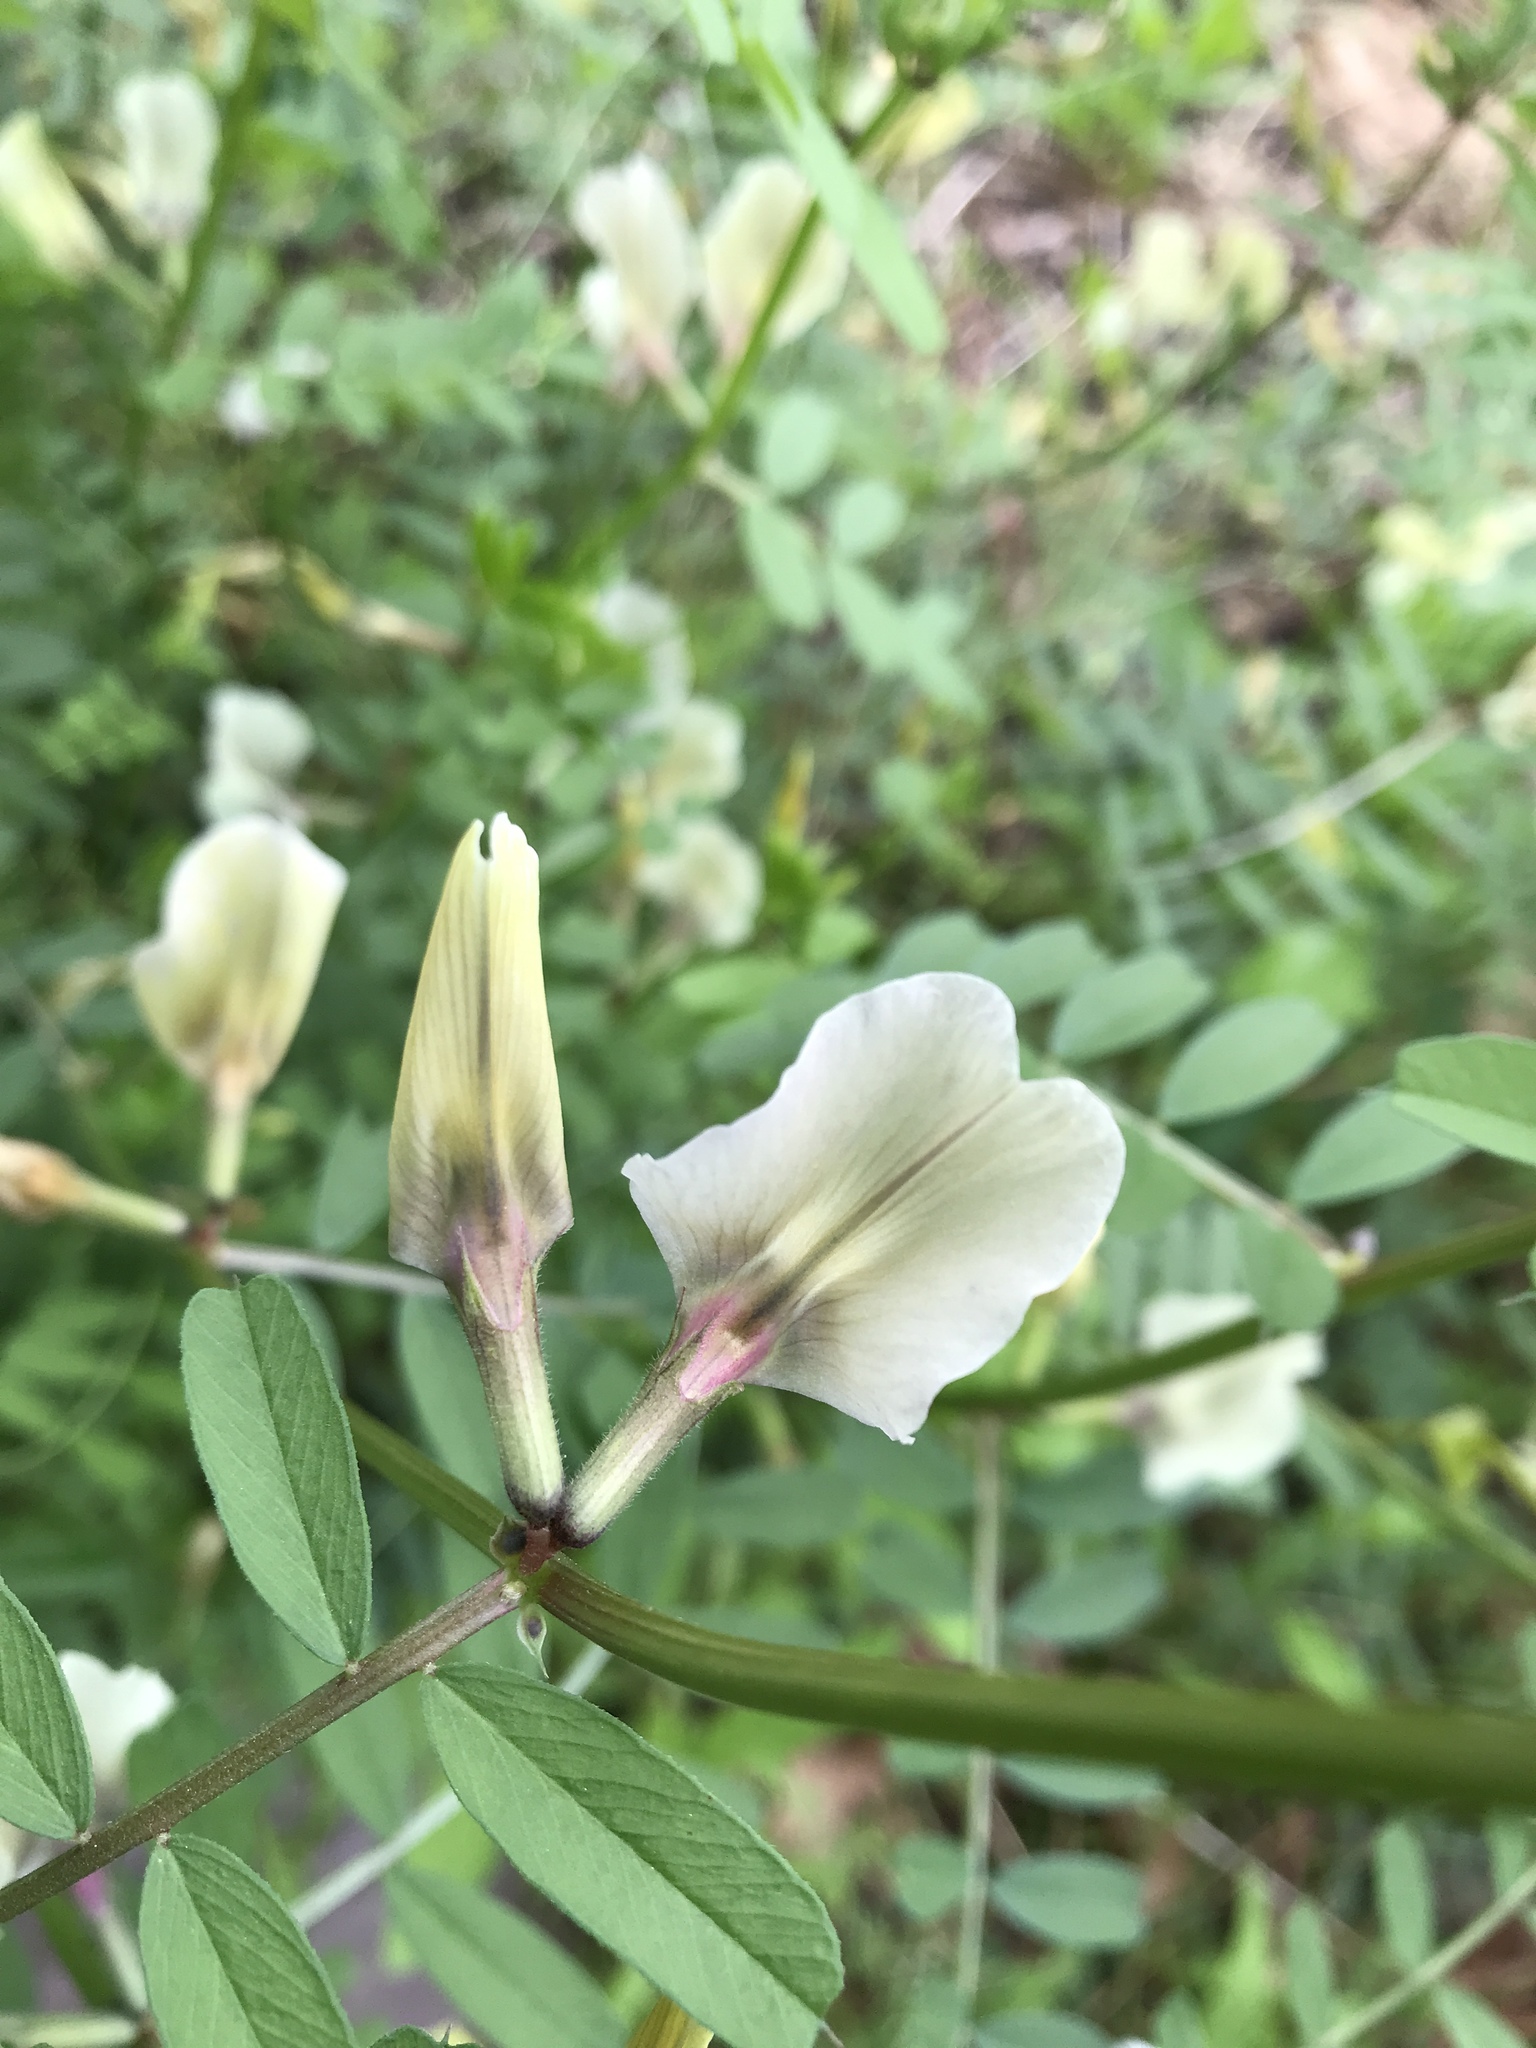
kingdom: Plantae
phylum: Tracheophyta
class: Magnoliopsida
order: Fabales
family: Fabaceae
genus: Vicia
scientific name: Vicia grandiflora
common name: Large yellow vetch
